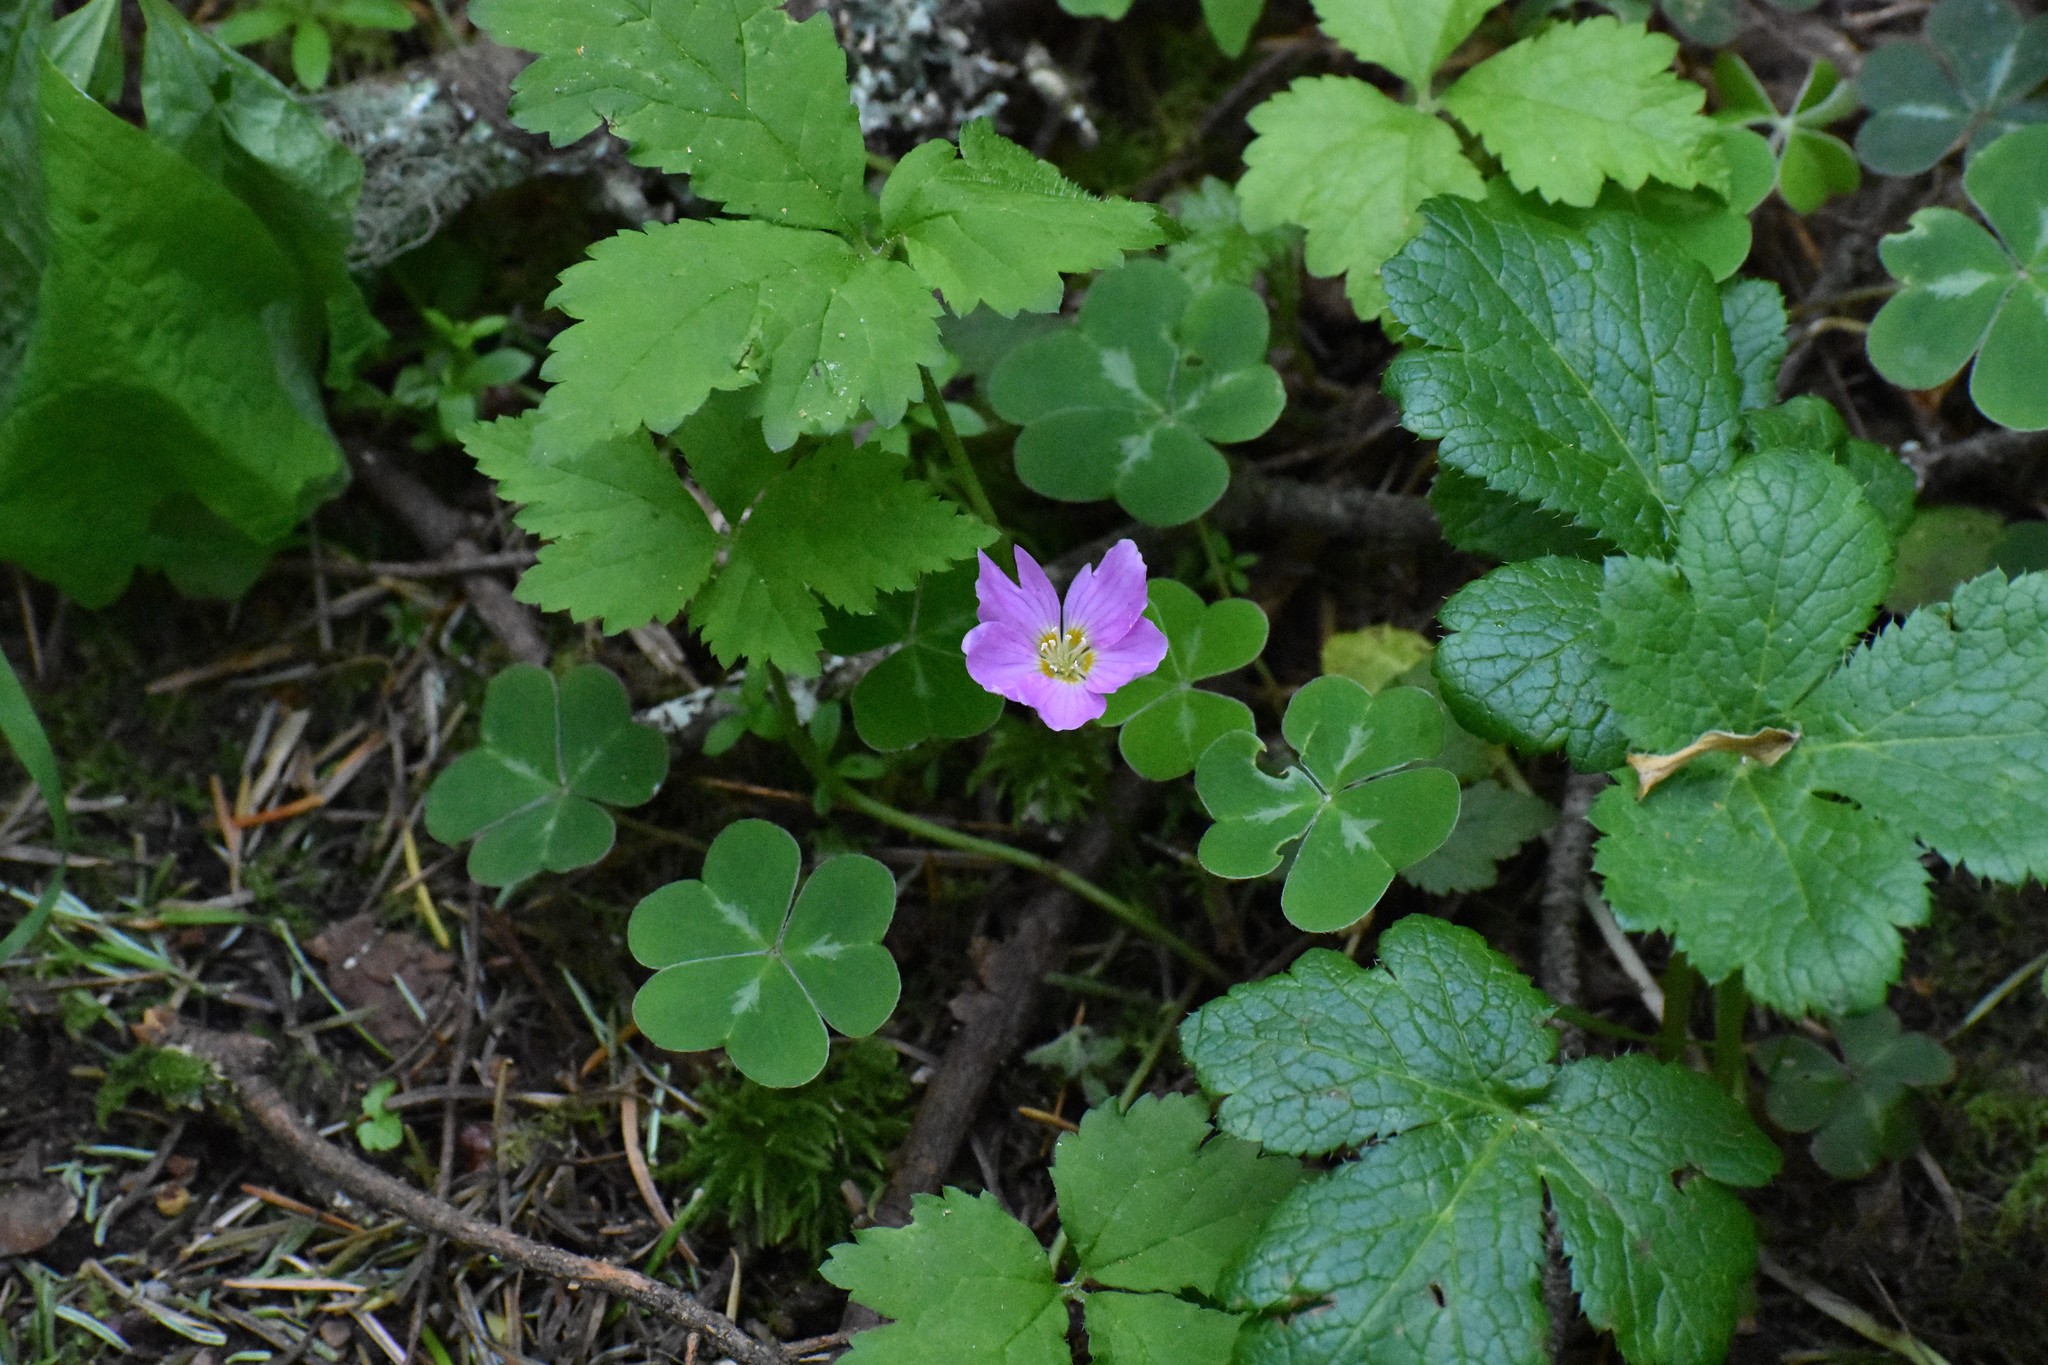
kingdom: Plantae
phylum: Tracheophyta
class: Magnoliopsida
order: Oxalidales
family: Oxalidaceae
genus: Oxalis
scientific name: Oxalis oregana
